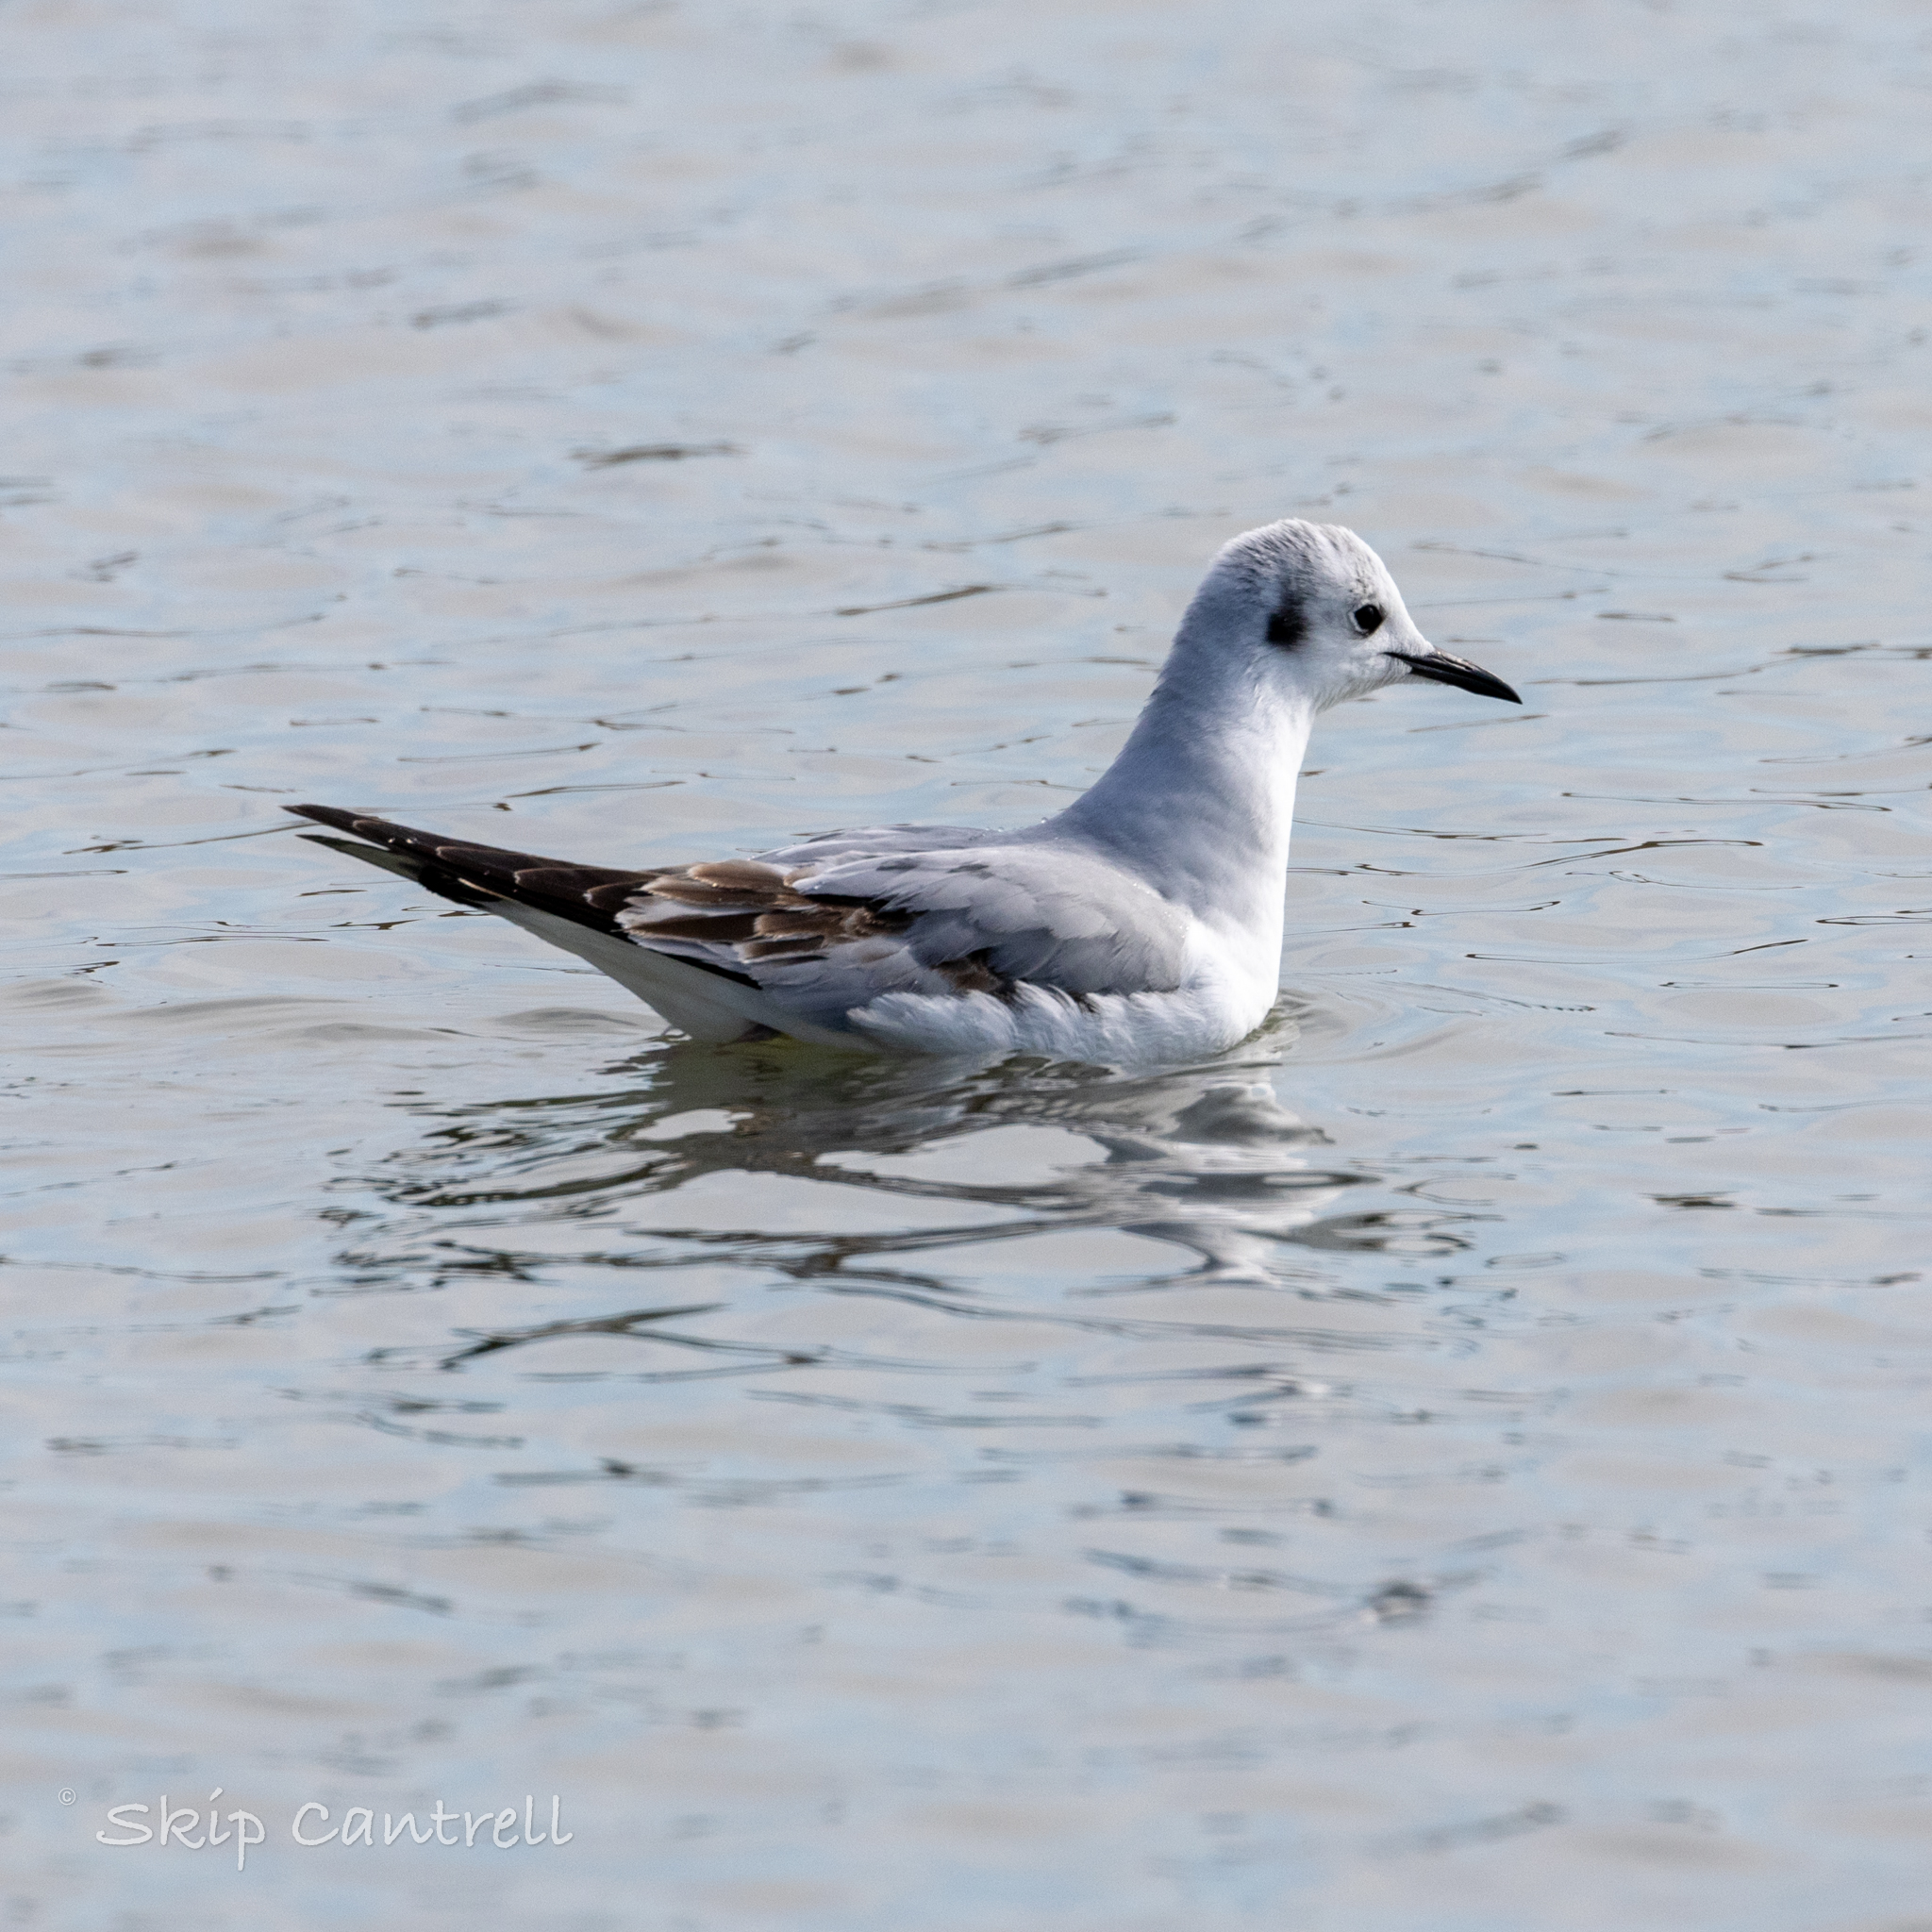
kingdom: Animalia
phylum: Chordata
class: Aves
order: Charadriiformes
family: Laridae
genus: Chroicocephalus
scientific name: Chroicocephalus philadelphia
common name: Bonaparte's gull
